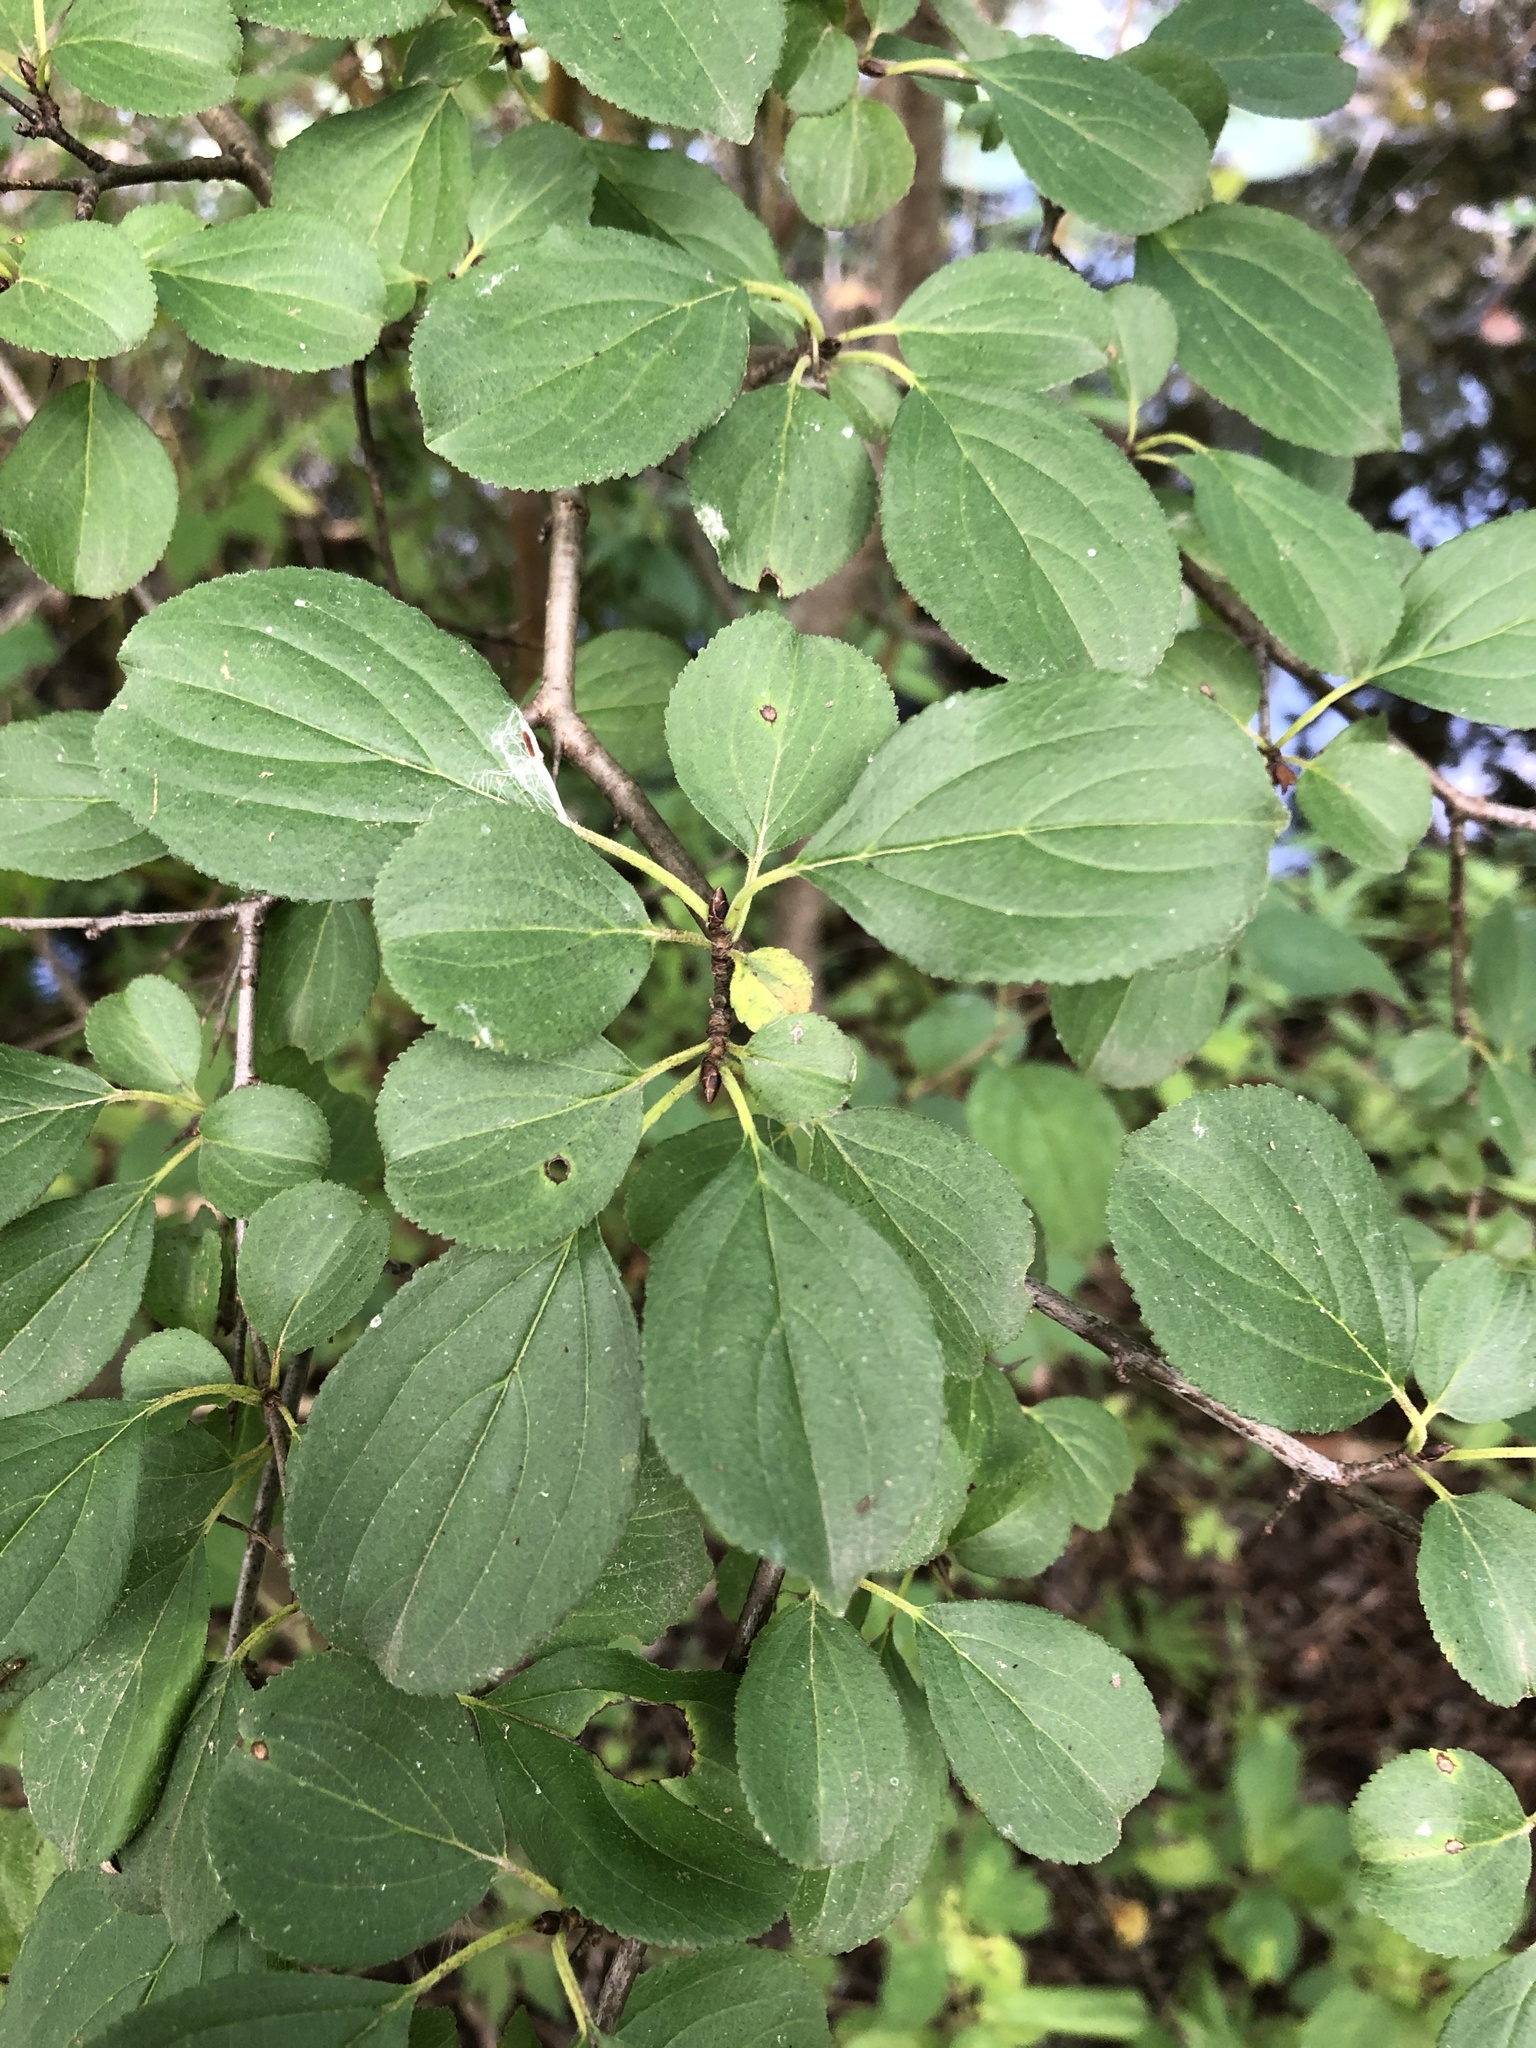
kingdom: Plantae
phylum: Tracheophyta
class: Magnoliopsida
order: Rosales
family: Rhamnaceae
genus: Rhamnus
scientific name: Rhamnus cathartica
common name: Common buckthorn
